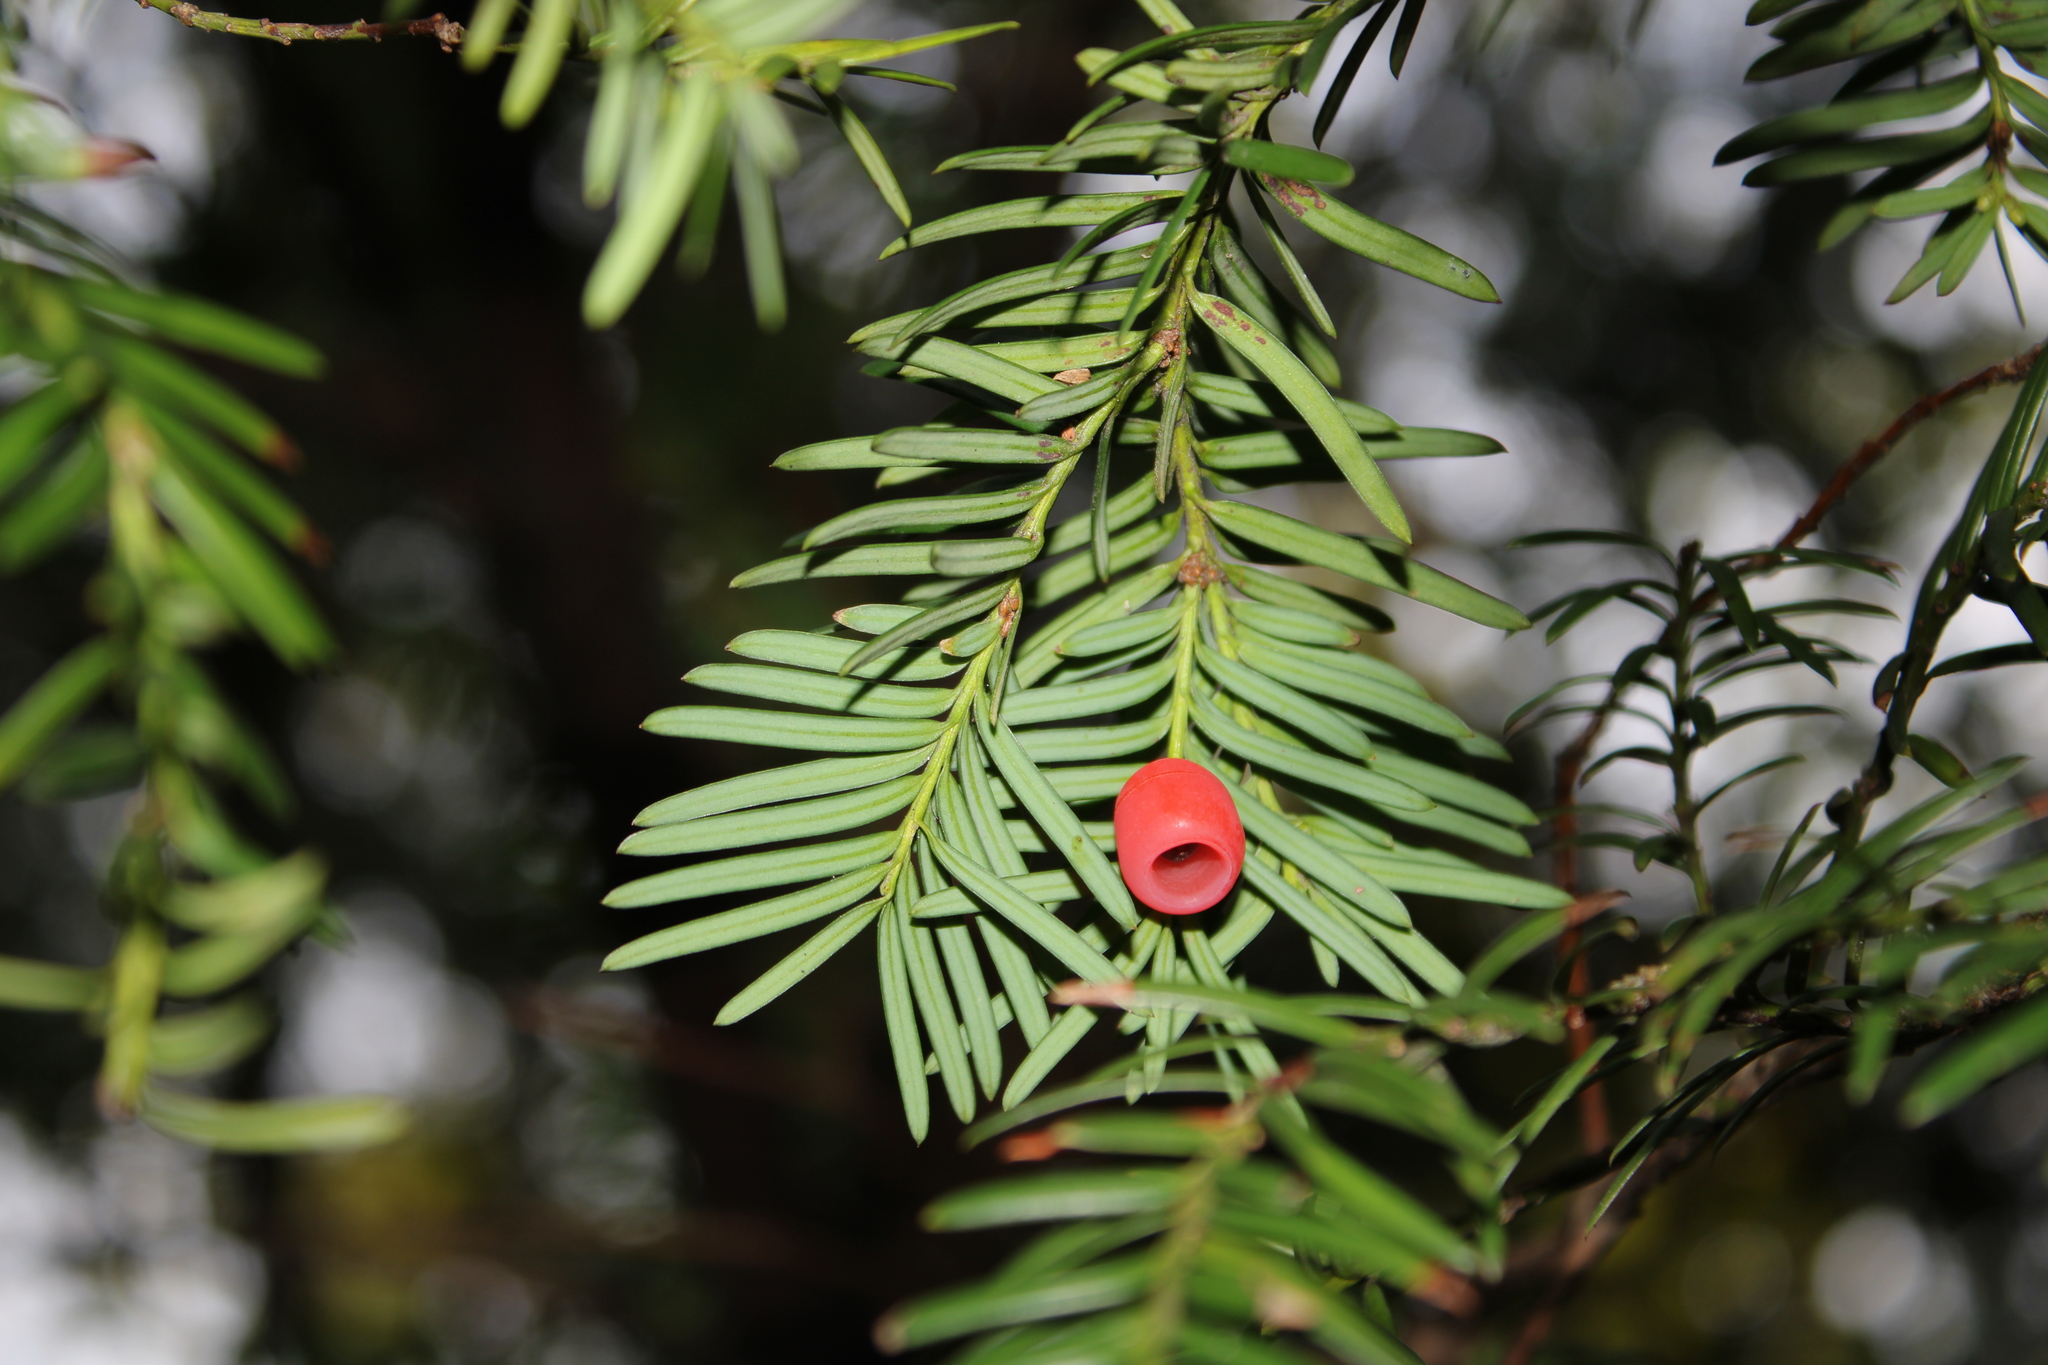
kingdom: Plantae
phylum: Tracheophyta
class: Pinopsida
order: Pinales
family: Taxaceae
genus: Taxus
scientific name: Taxus baccata
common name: Yew
